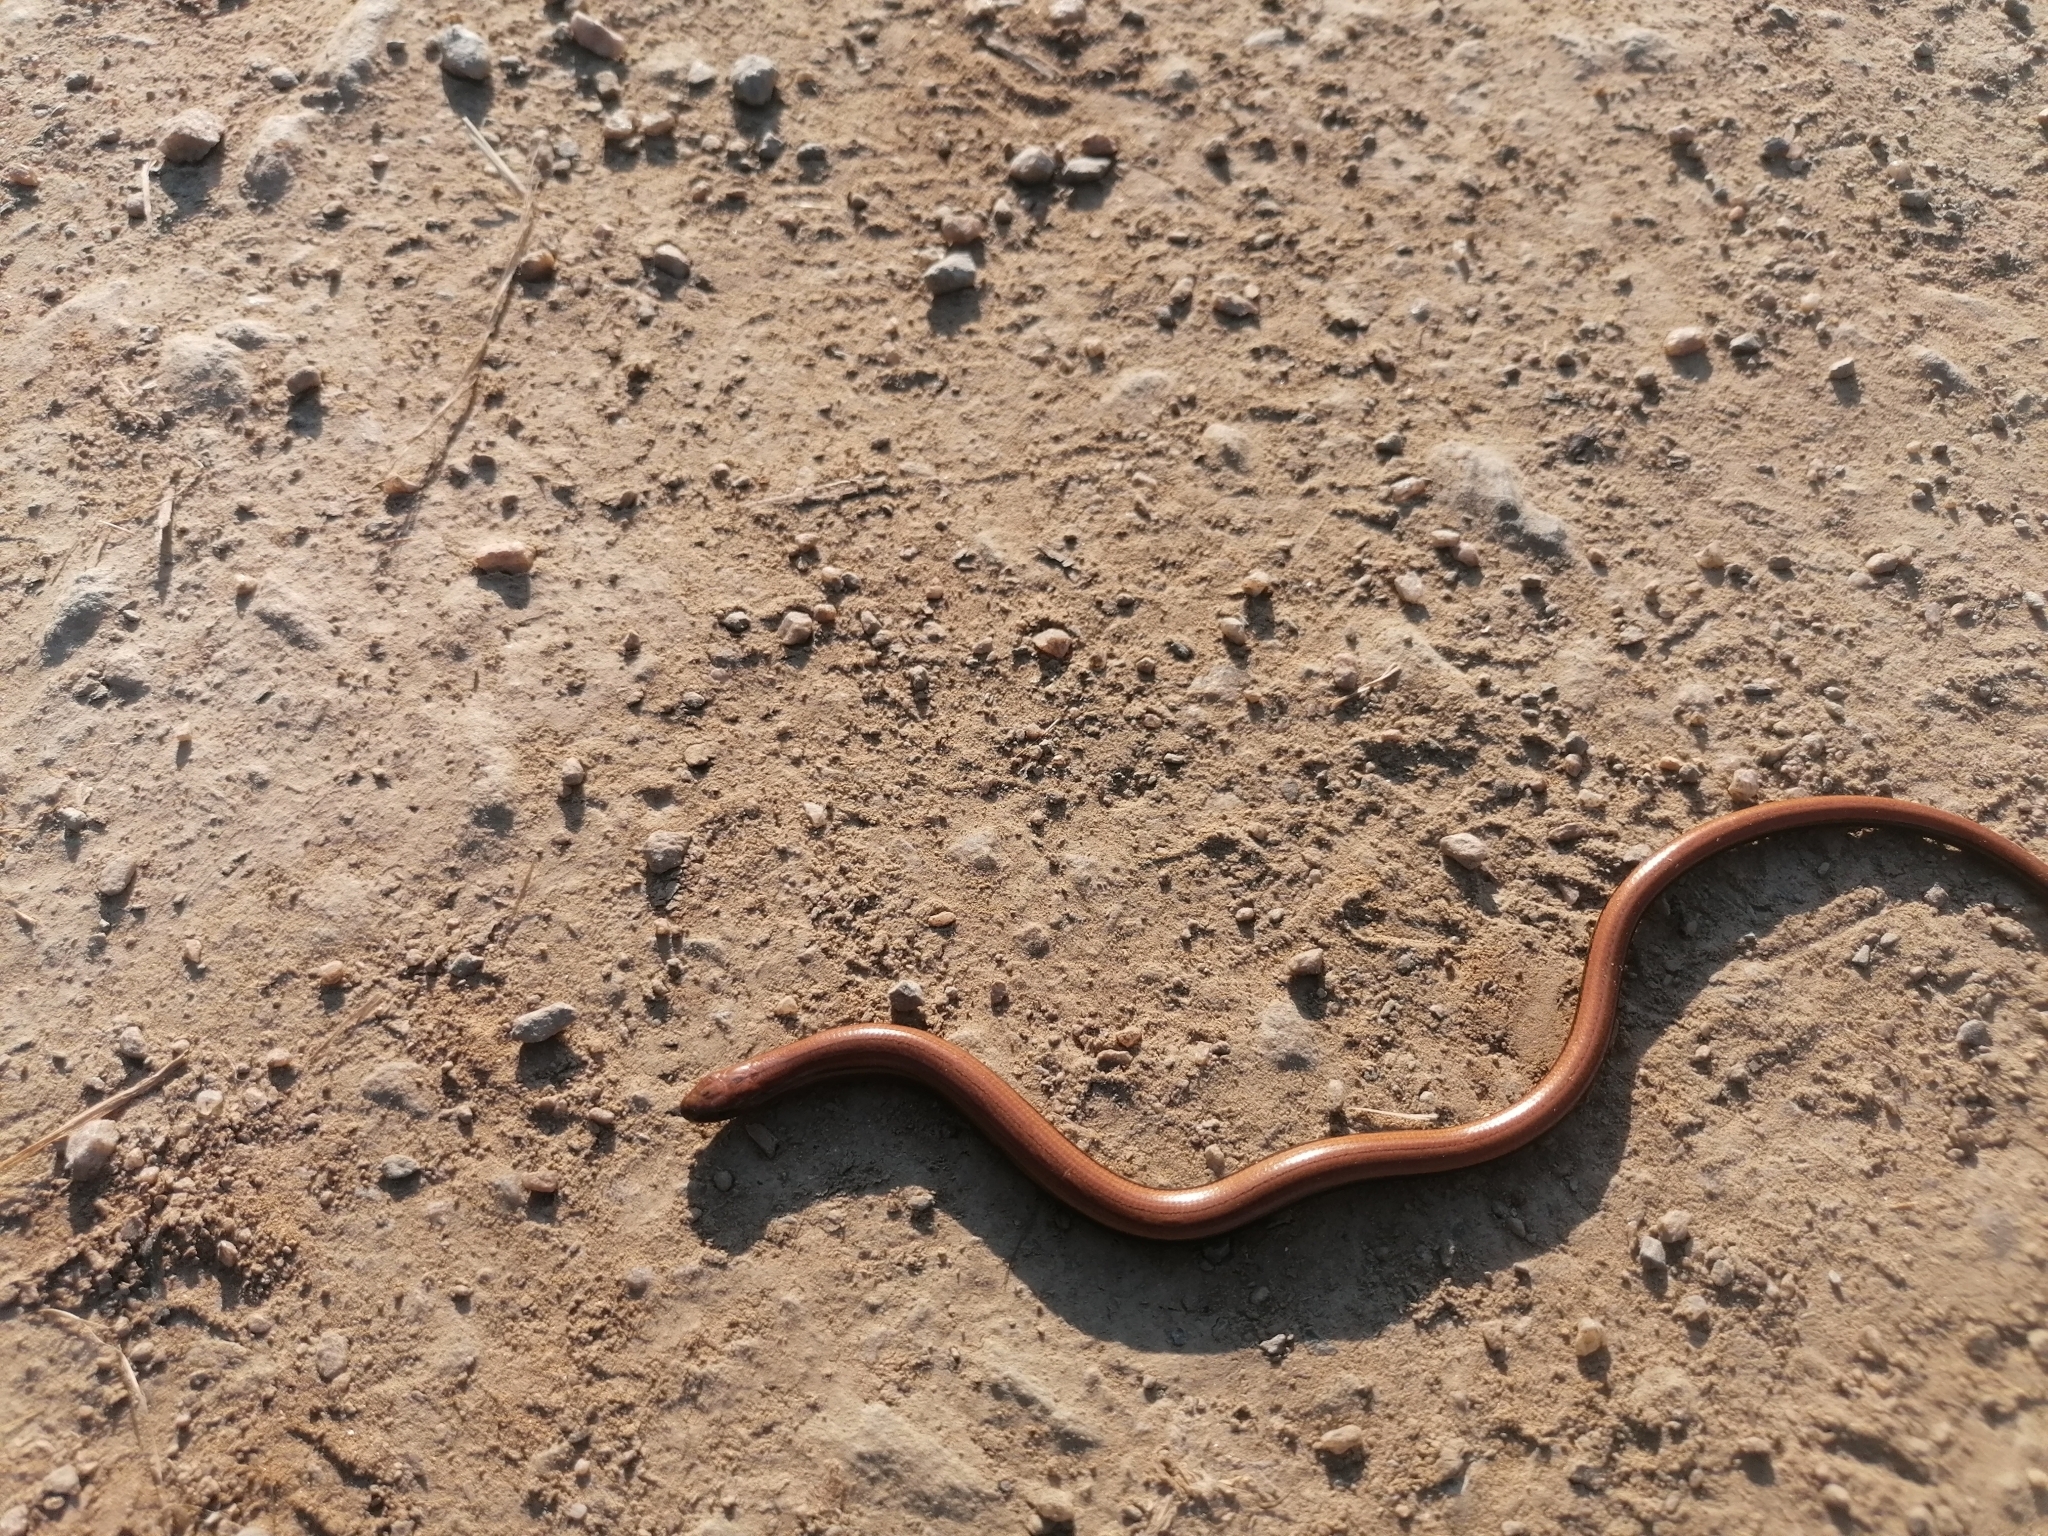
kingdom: Animalia
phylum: Chordata
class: Squamata
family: Anguidae
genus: Anguis
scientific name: Anguis fragilis
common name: Slow worm
